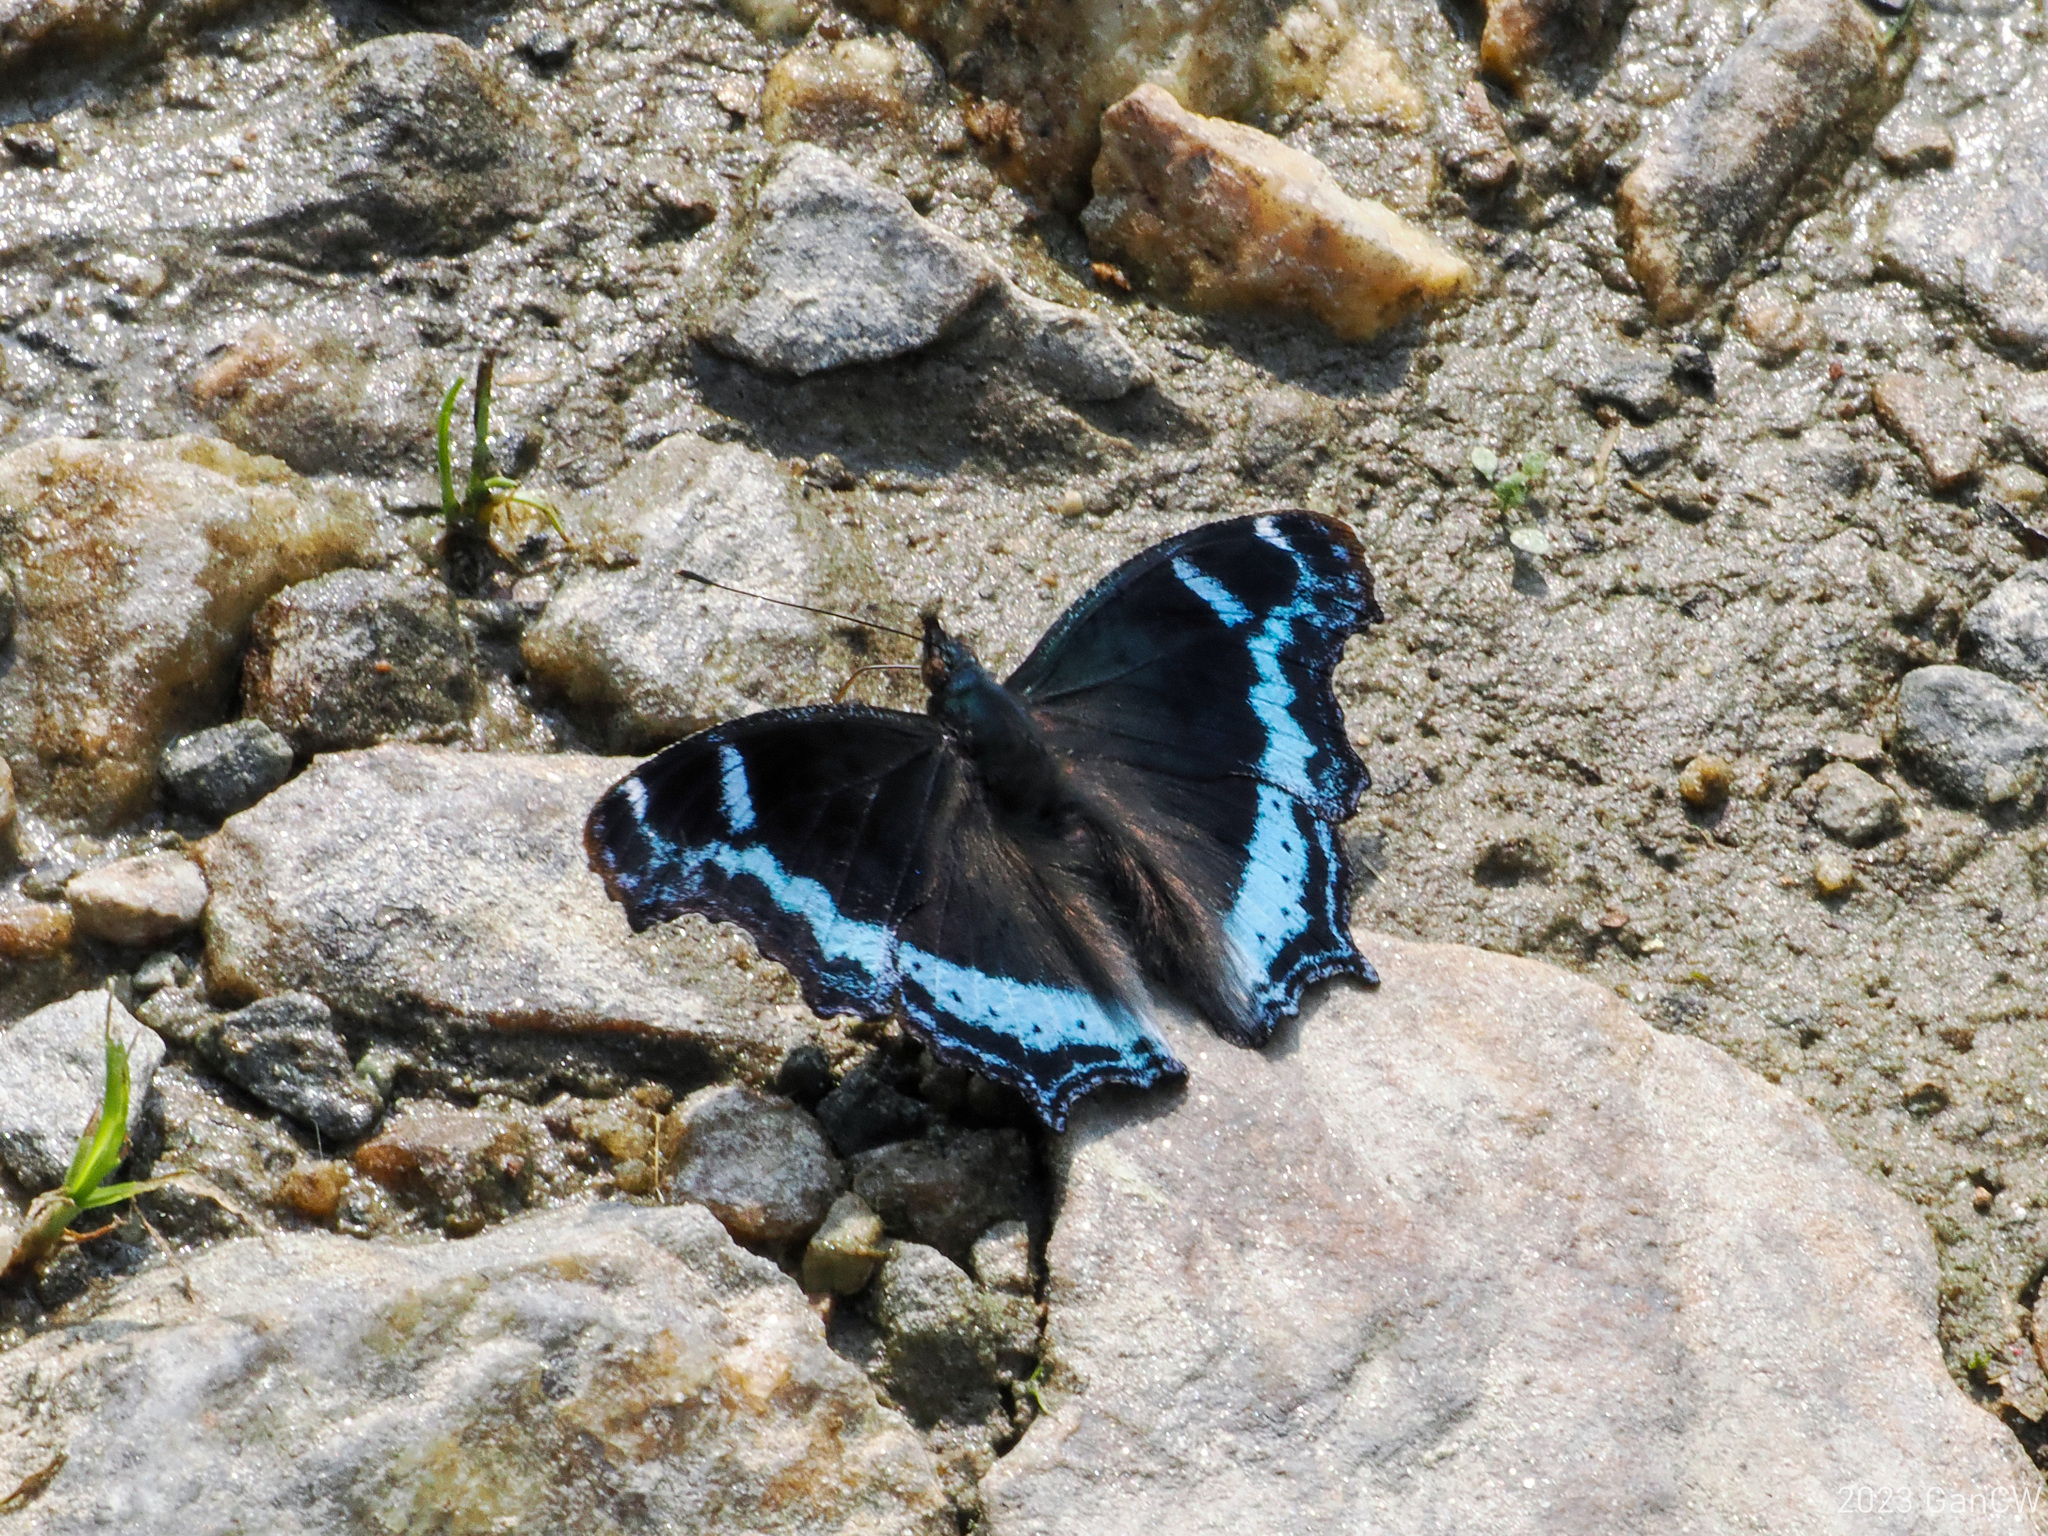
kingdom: Animalia
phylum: Arthropoda
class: Insecta
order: Lepidoptera
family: Nymphalidae
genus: Vanessa
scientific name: Vanessa Kaniska canace
